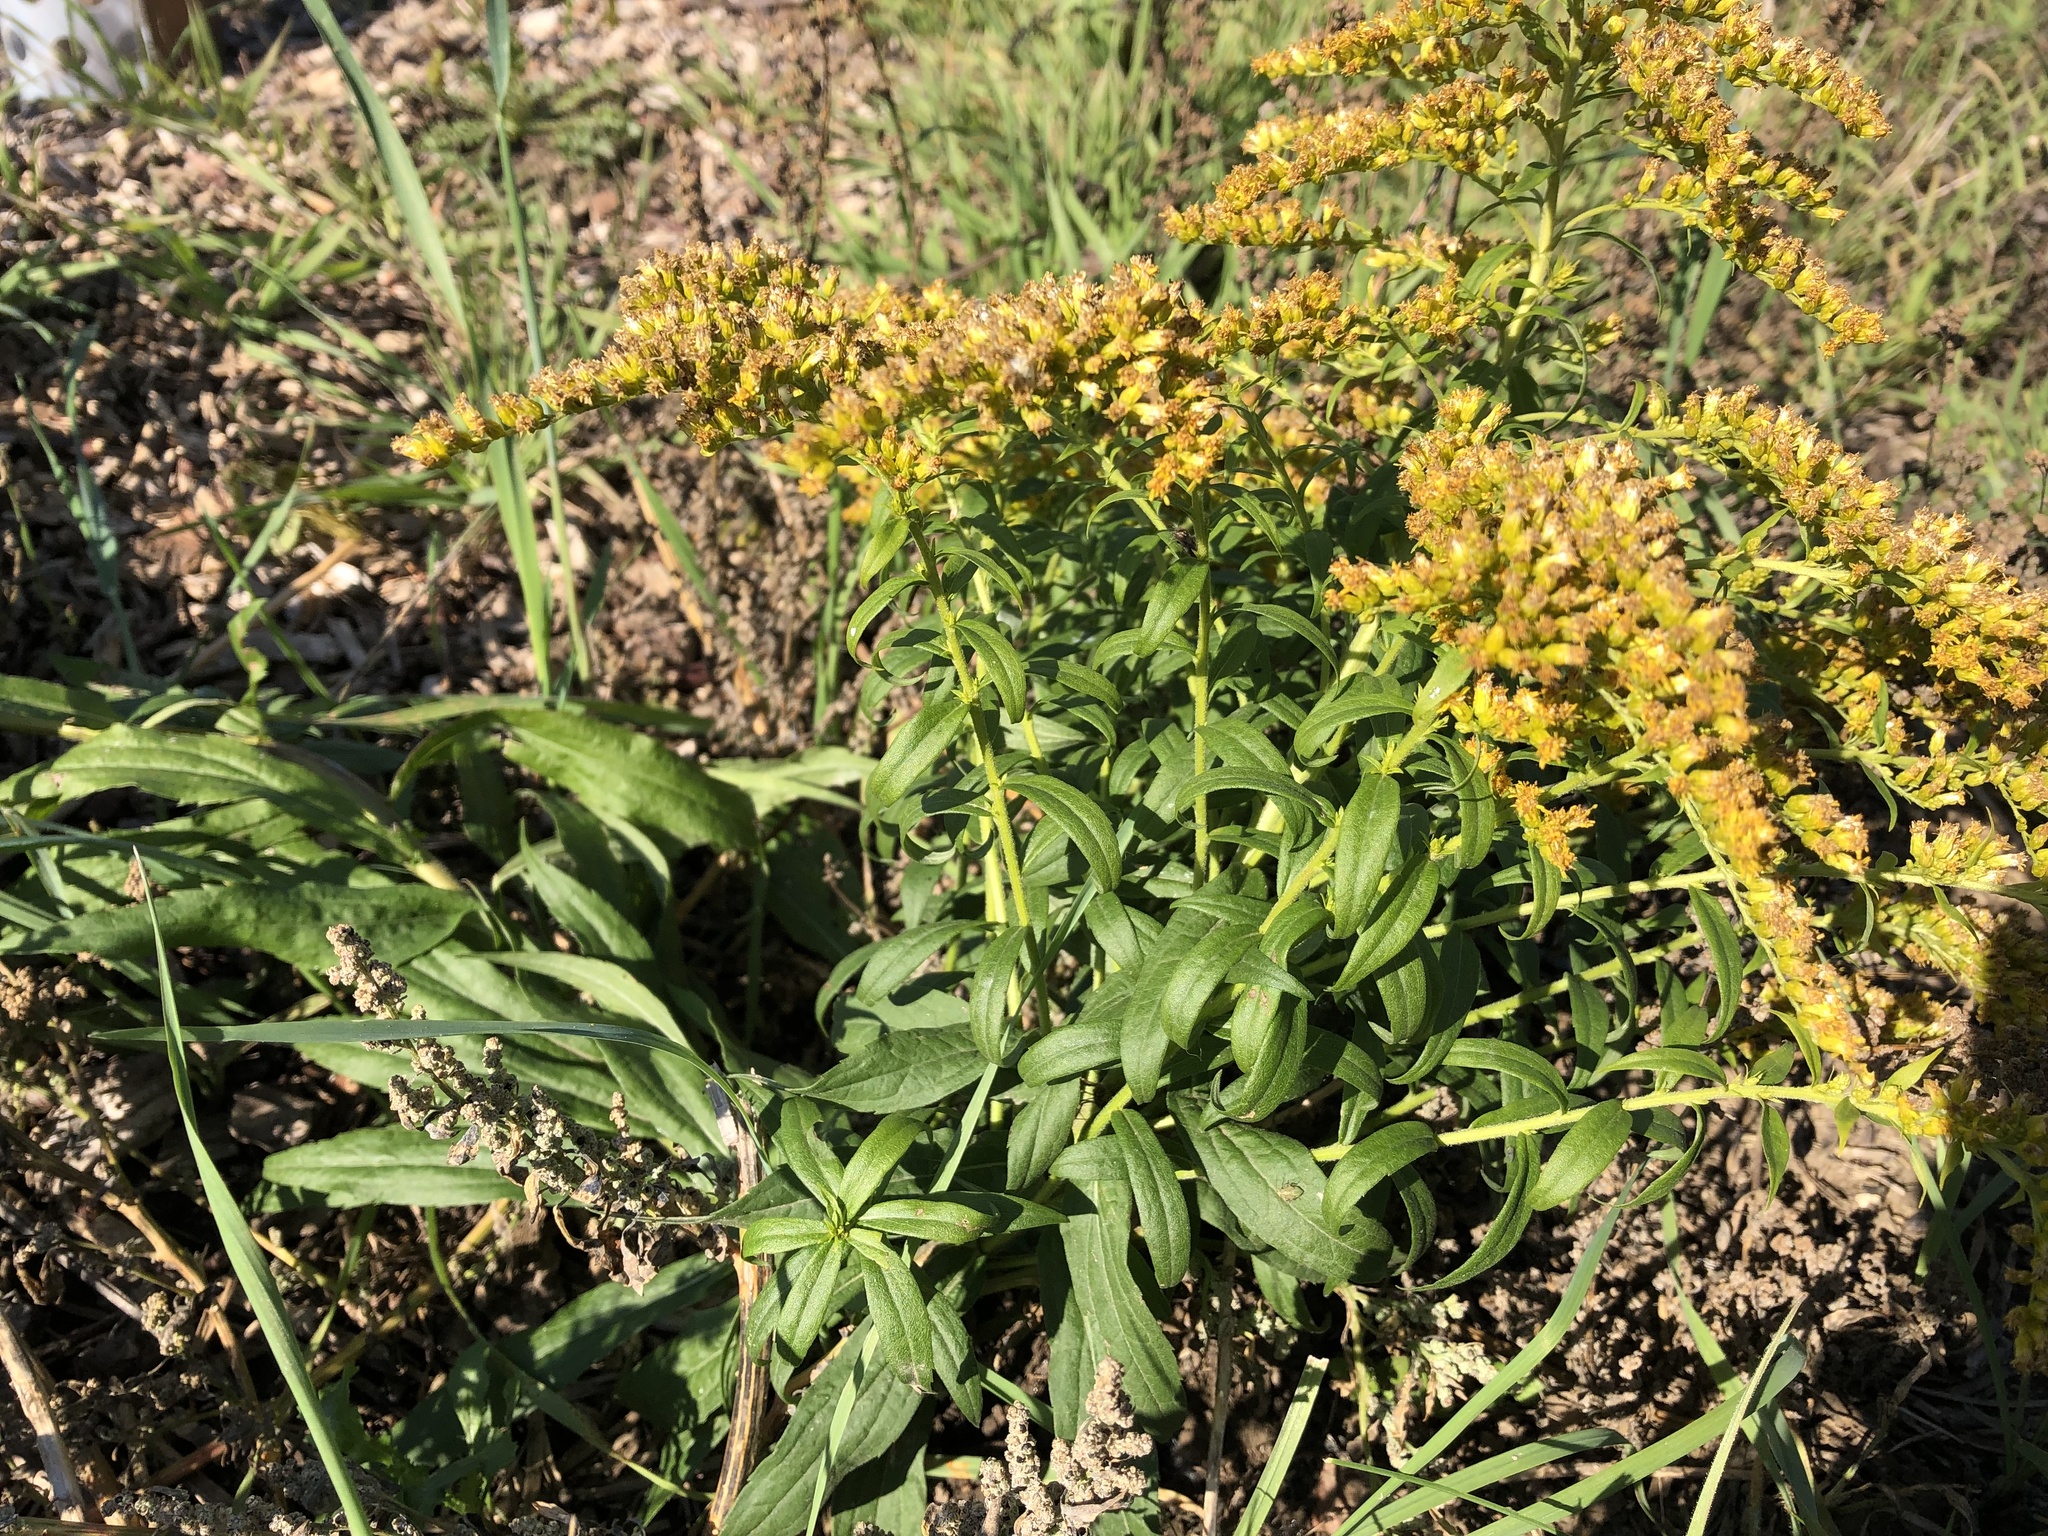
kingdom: Plantae
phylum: Tracheophyta
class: Magnoliopsida
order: Asterales
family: Asteraceae
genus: Solidago
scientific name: Solidago canadensis
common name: Canada goldenrod
